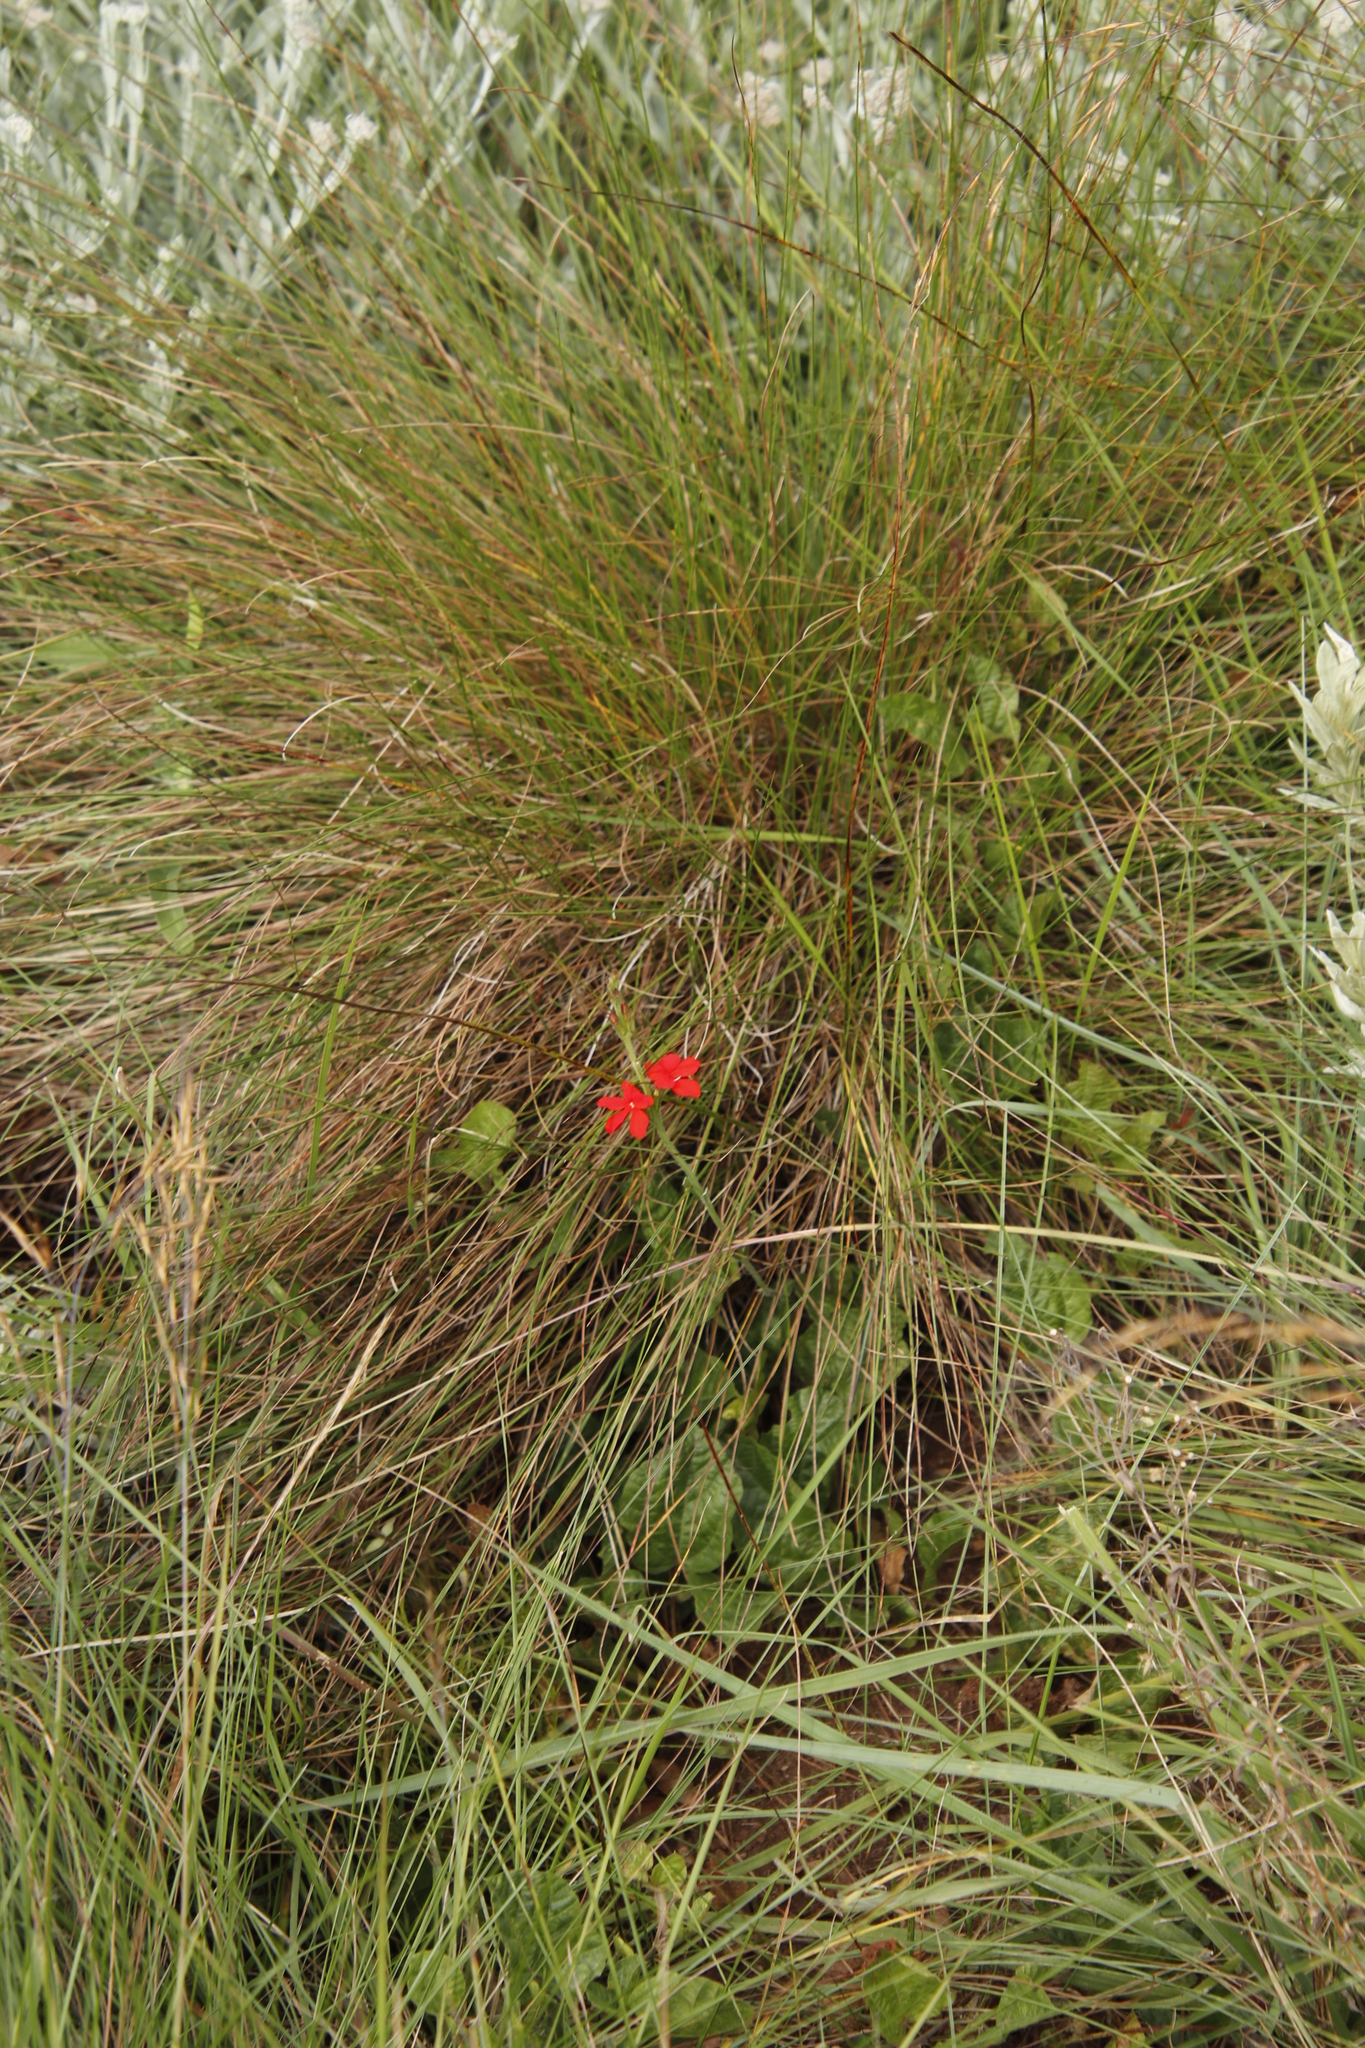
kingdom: Plantae
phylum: Tracheophyta
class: Magnoliopsida
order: Lamiales
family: Orobanchaceae
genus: Striga
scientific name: Striga elegans
